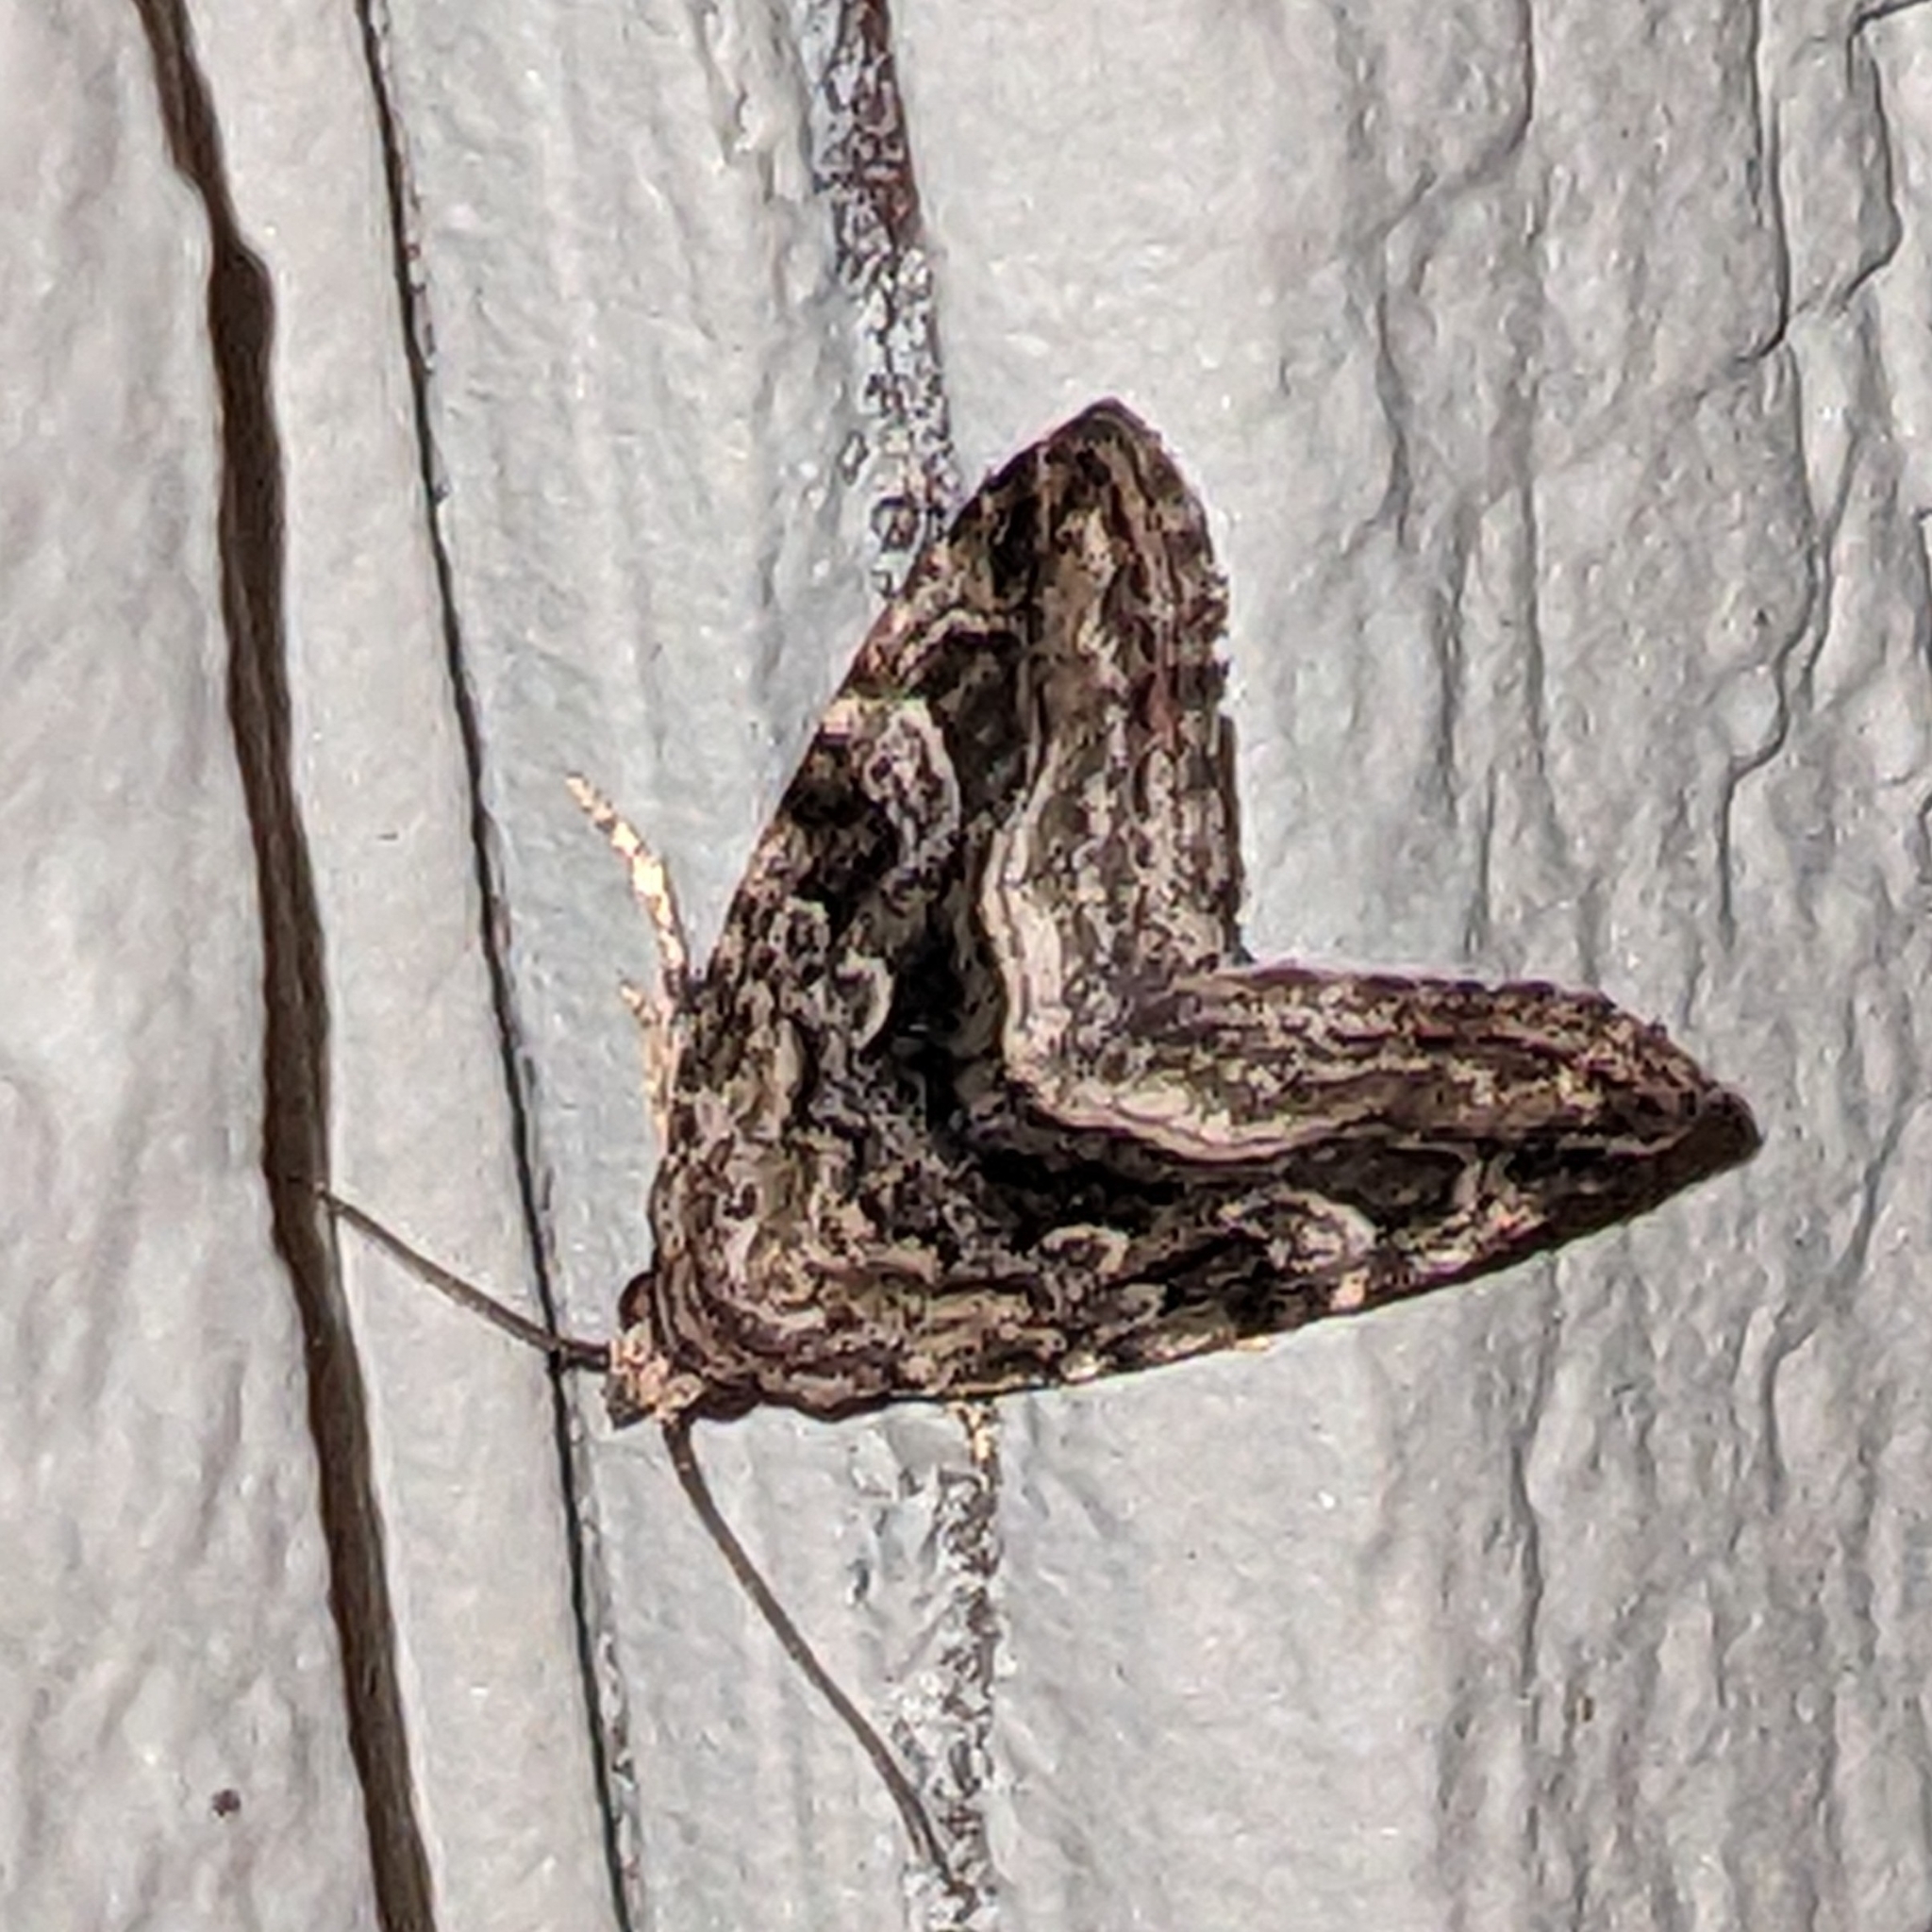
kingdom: Animalia
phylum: Arthropoda
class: Insecta
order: Lepidoptera
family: Noctuidae
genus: Protodeltote
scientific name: Protodeltote muscosula
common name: Large mossy glyph
